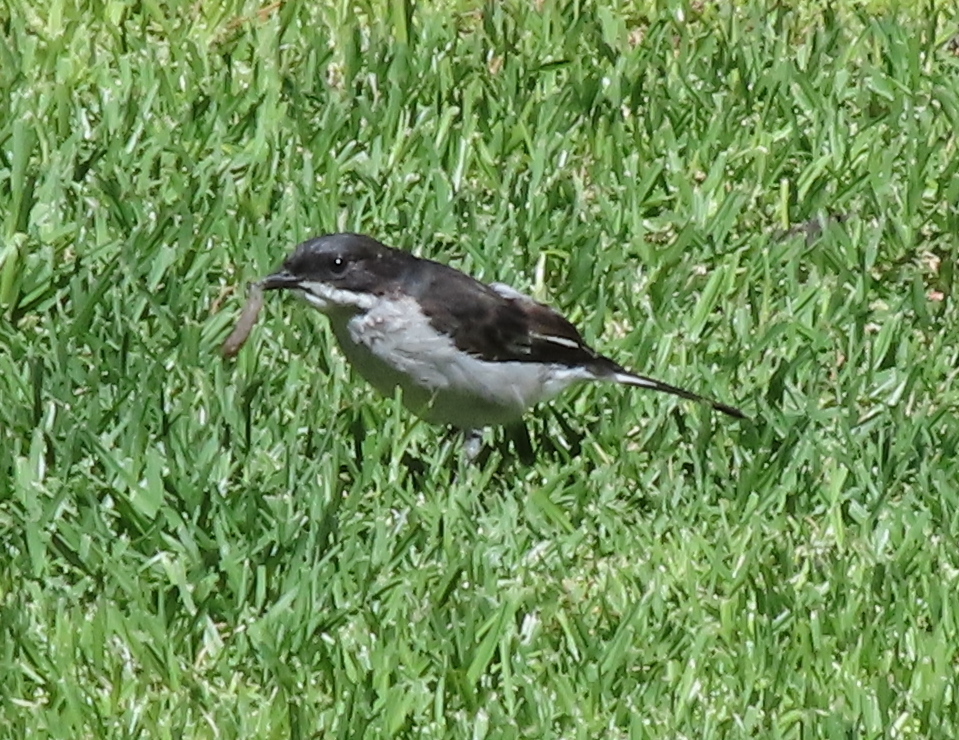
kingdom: Animalia
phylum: Chordata
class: Aves
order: Passeriformes
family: Muscicapidae
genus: Sigelus
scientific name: Sigelus silens
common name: Fiscal flycatcher
